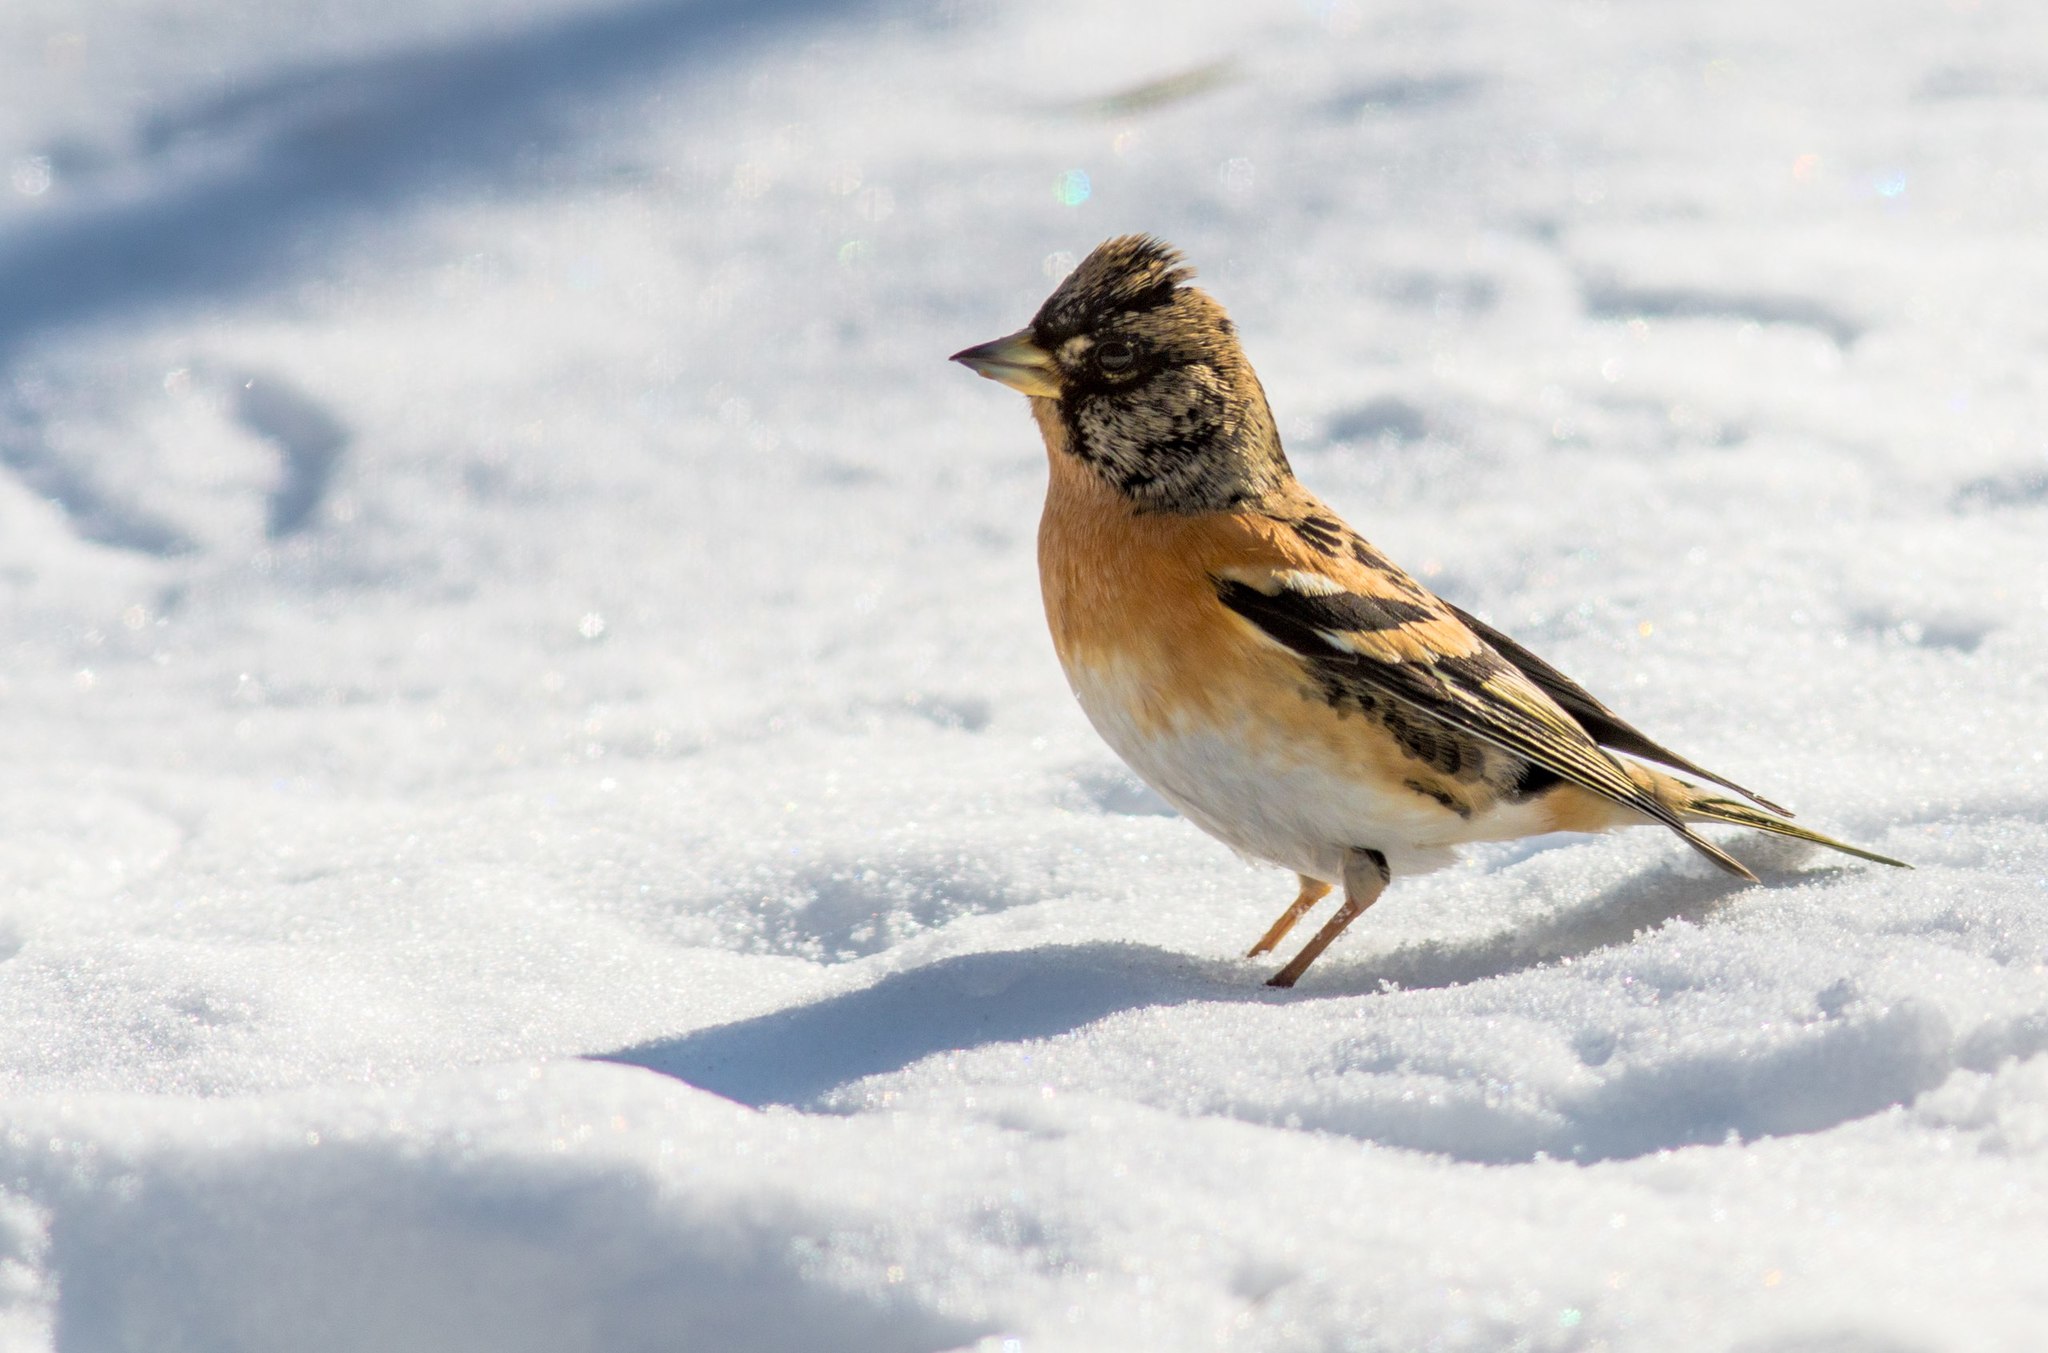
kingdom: Animalia
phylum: Chordata
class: Aves
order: Passeriformes
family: Fringillidae
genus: Fringilla
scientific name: Fringilla montifringilla
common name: Brambling
